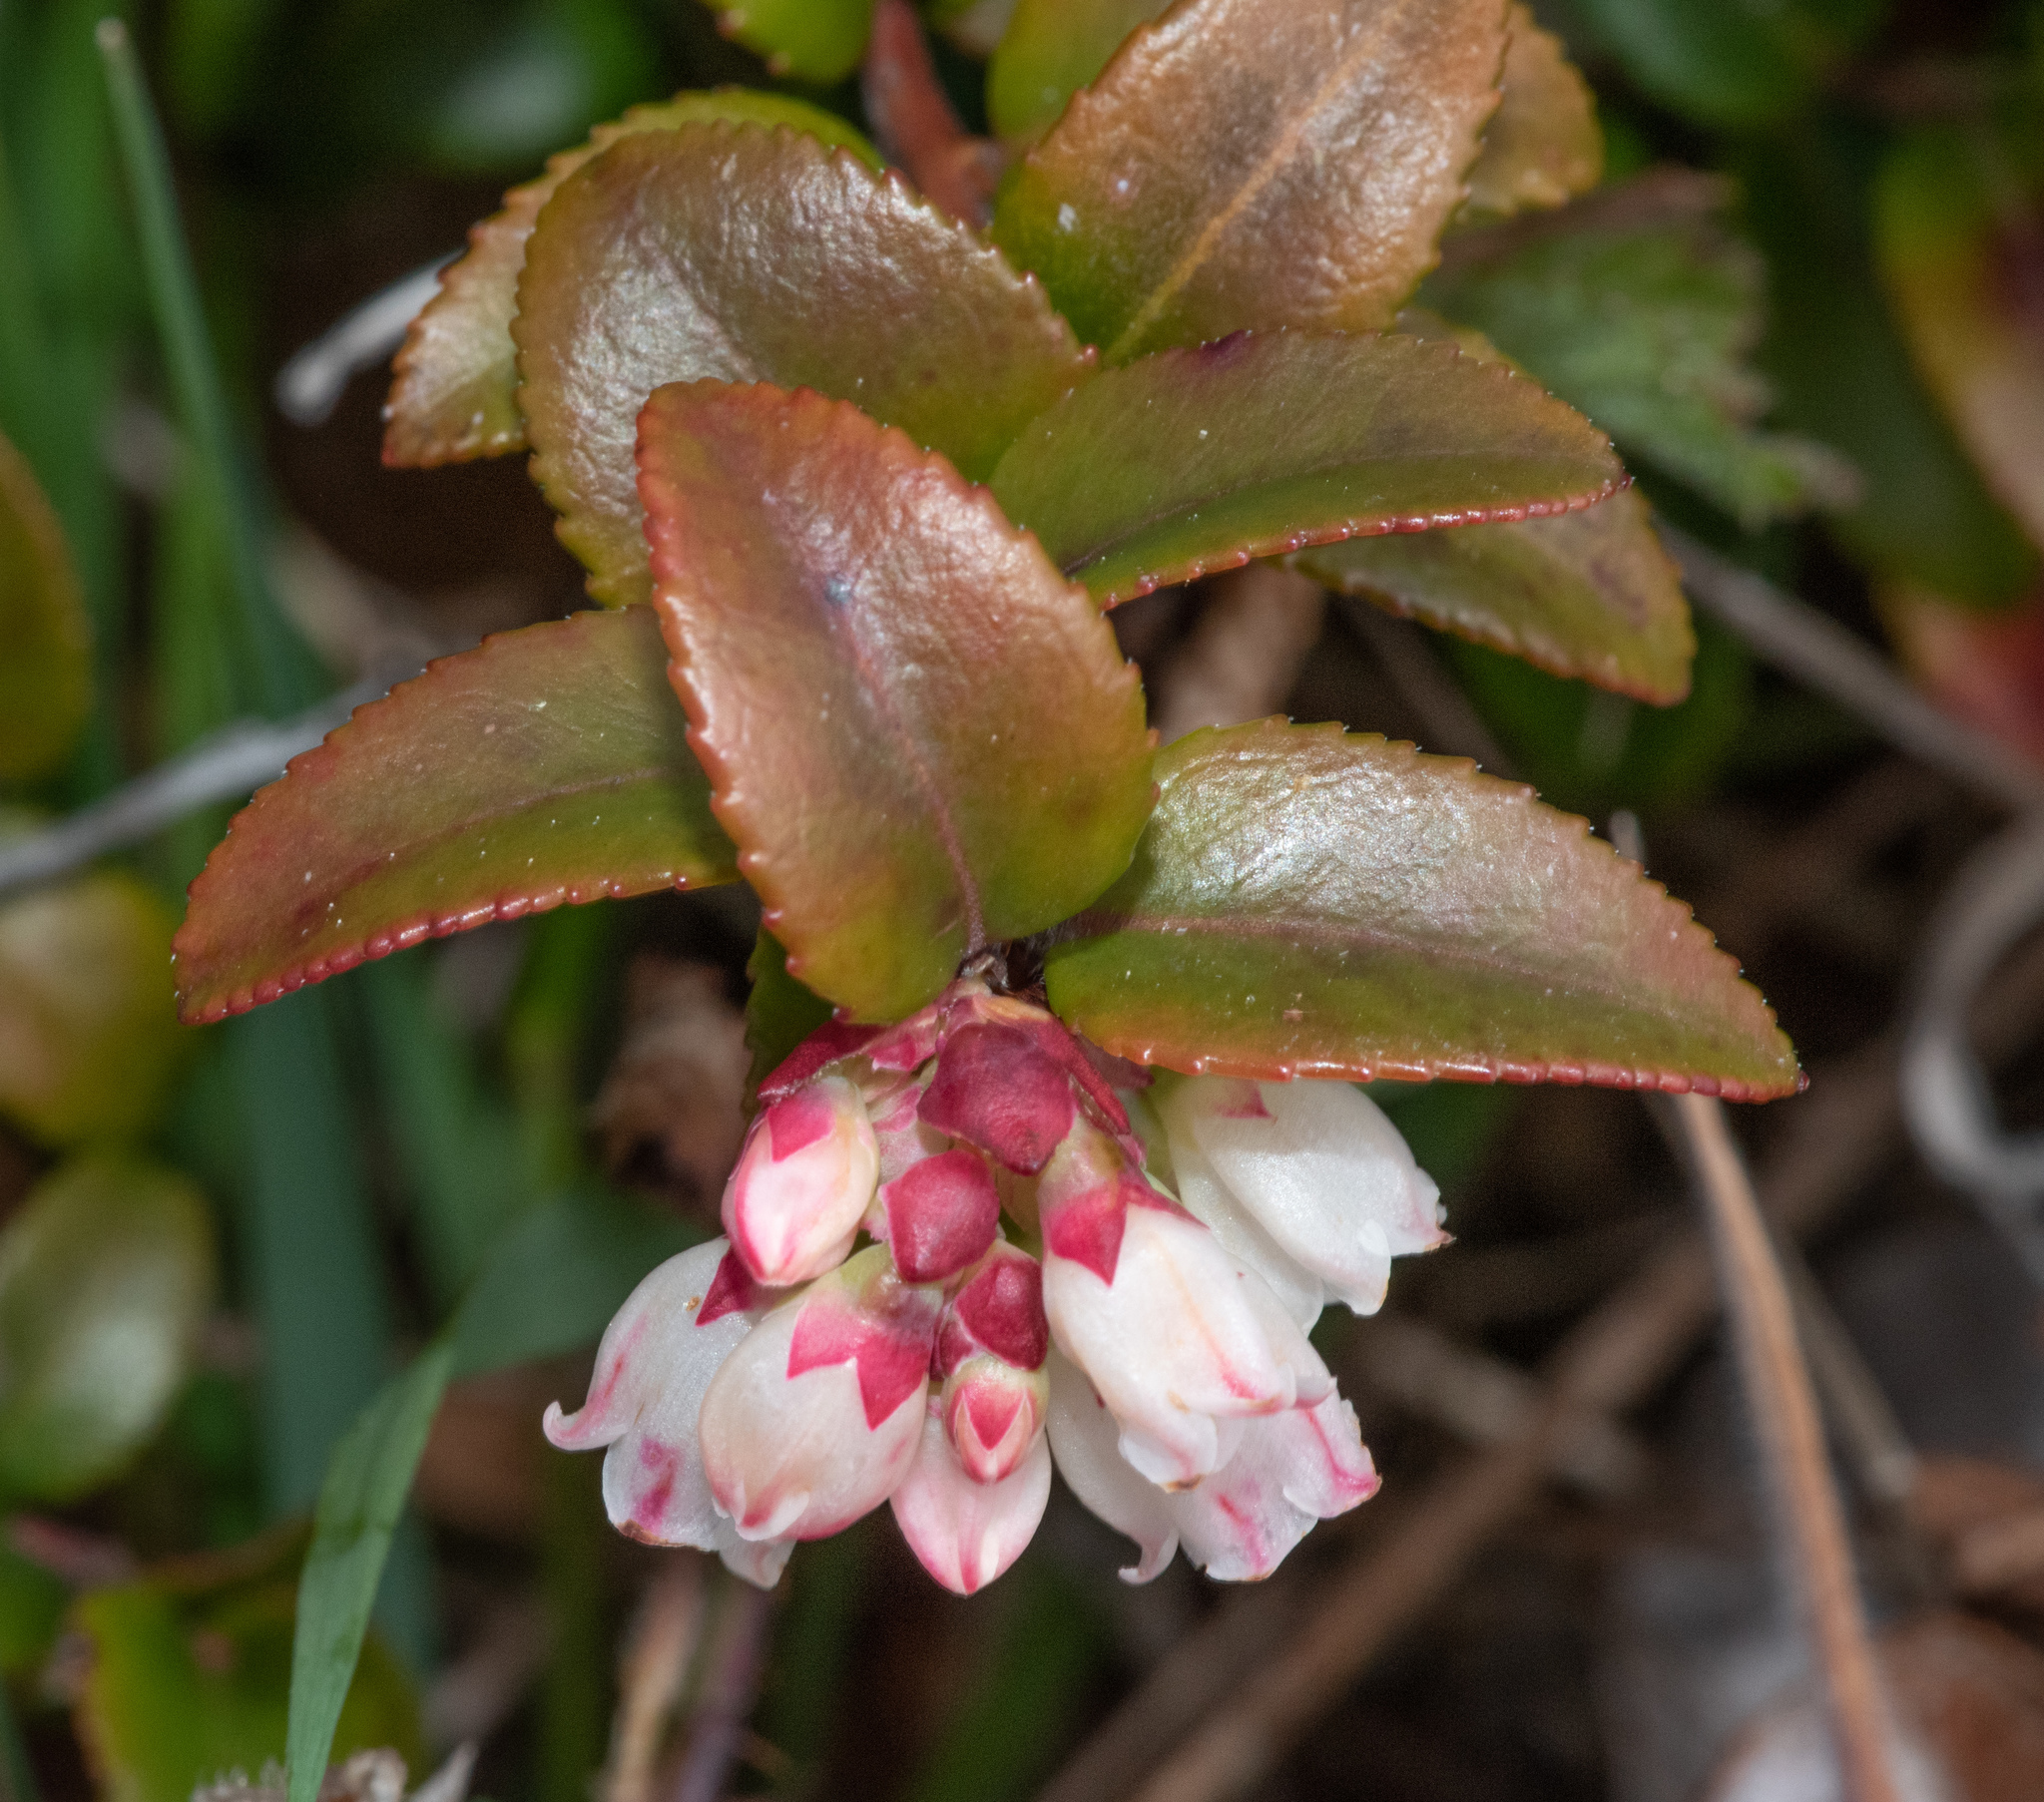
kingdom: Plantae
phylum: Tracheophyta
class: Magnoliopsida
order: Ericales
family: Ericaceae
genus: Vaccinium
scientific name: Vaccinium ovatum
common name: California-huckleberry
